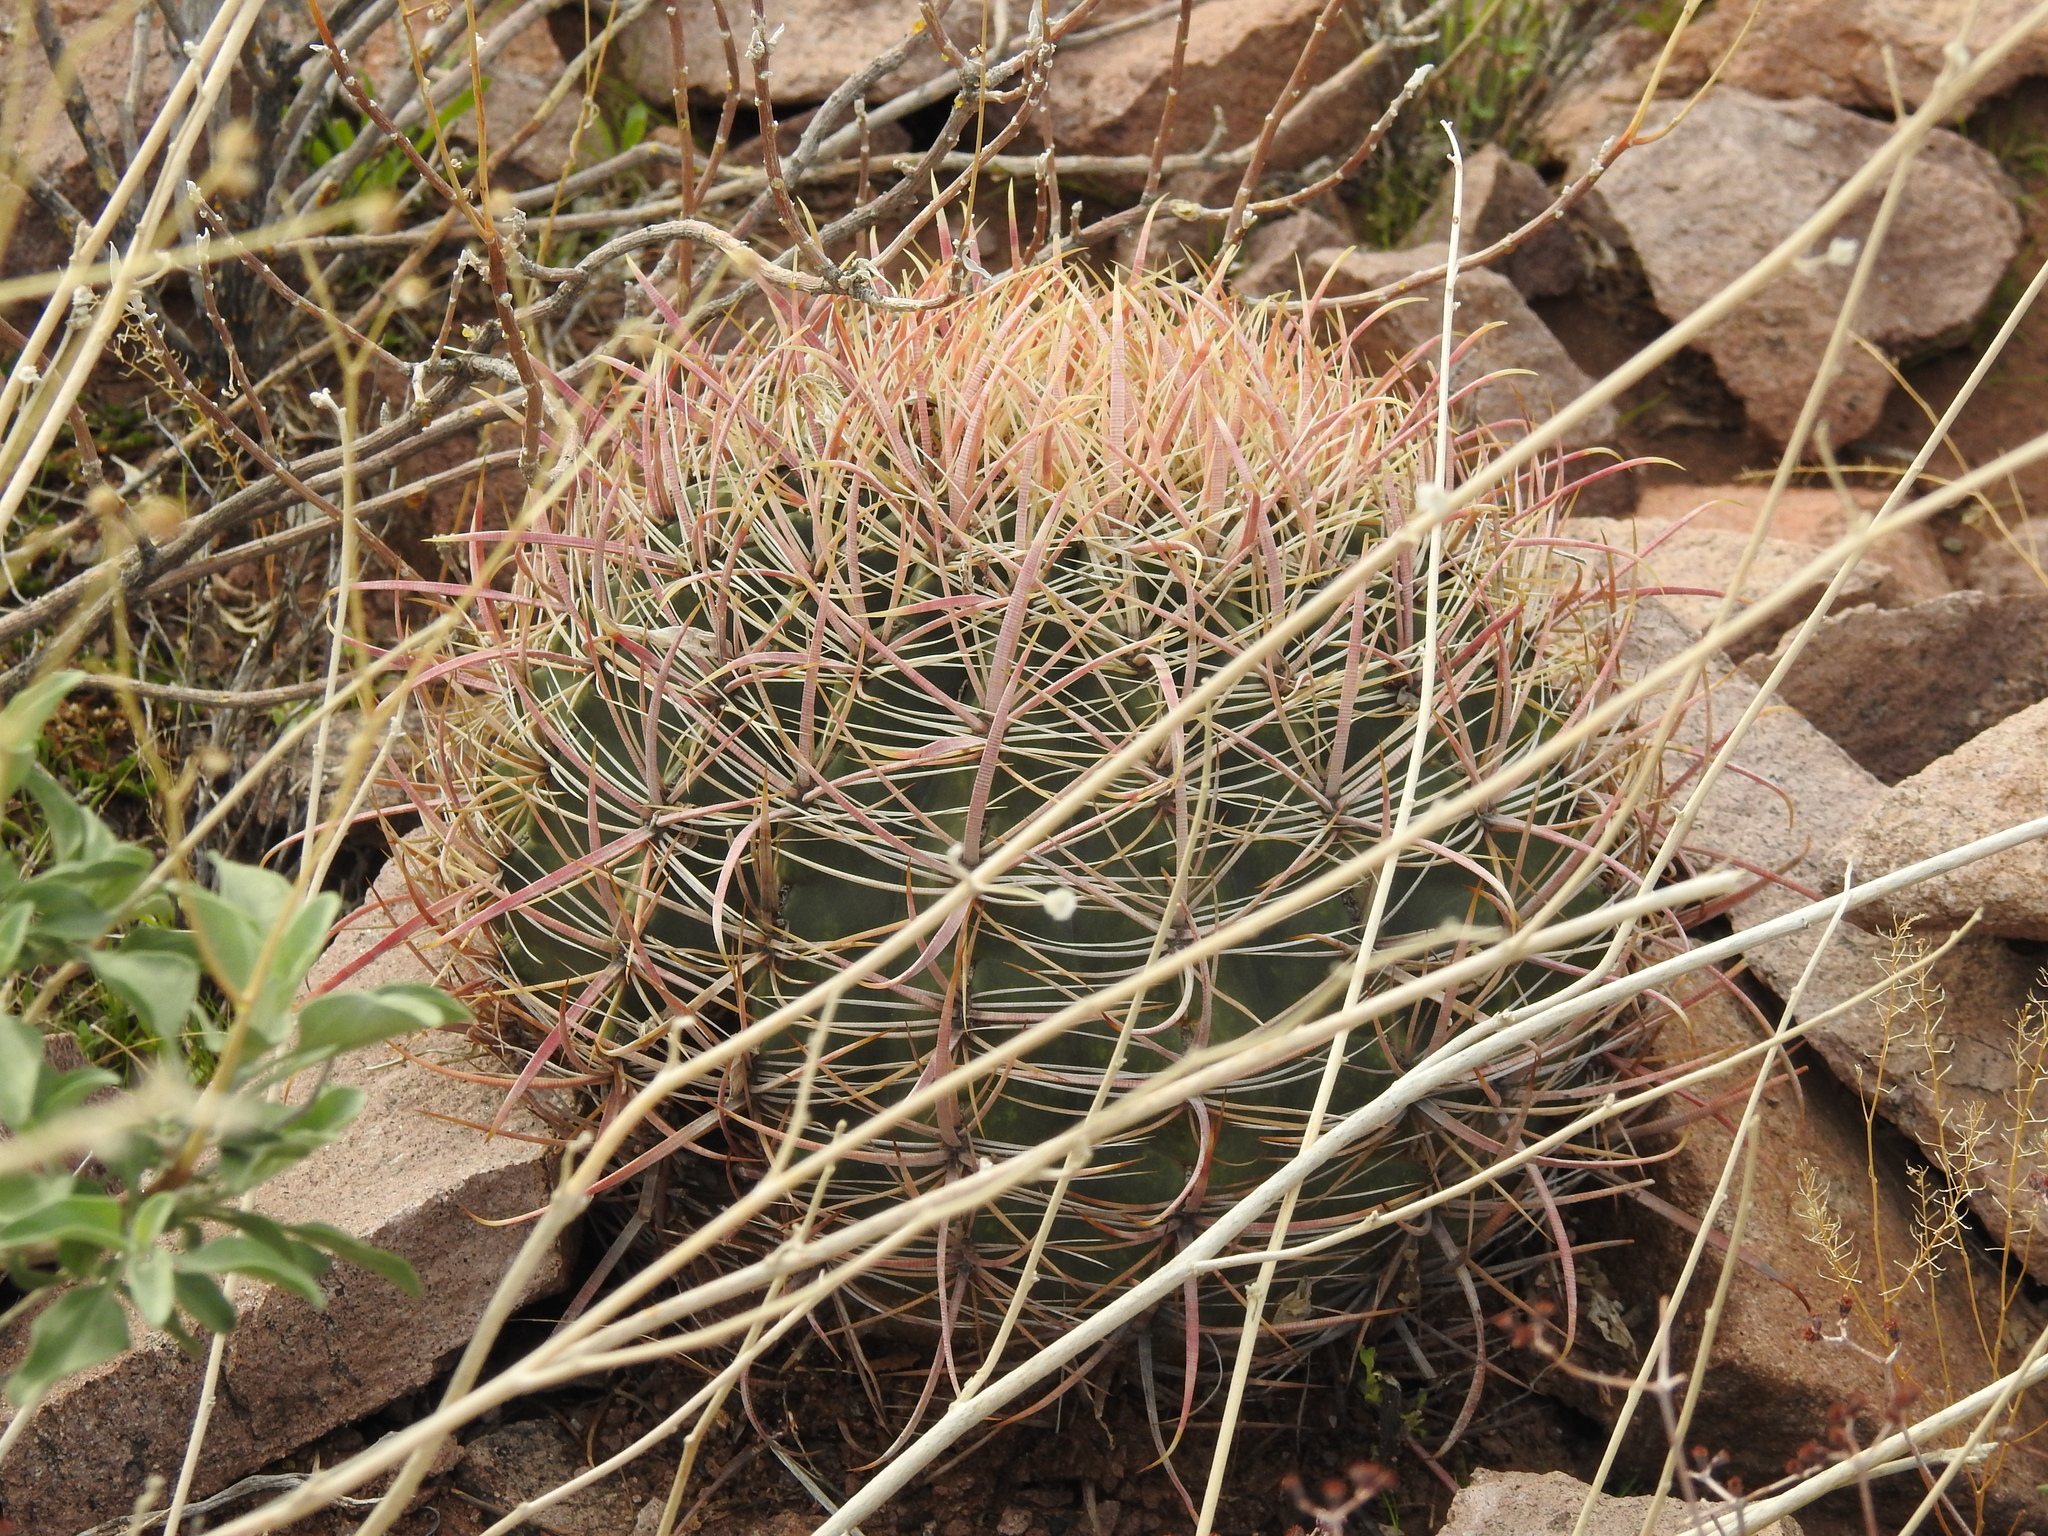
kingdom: Plantae
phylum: Tracheophyta
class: Magnoliopsida
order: Caryophyllales
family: Cactaceae
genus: Ferocactus
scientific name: Ferocactus cylindraceus
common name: California barrel cactus
